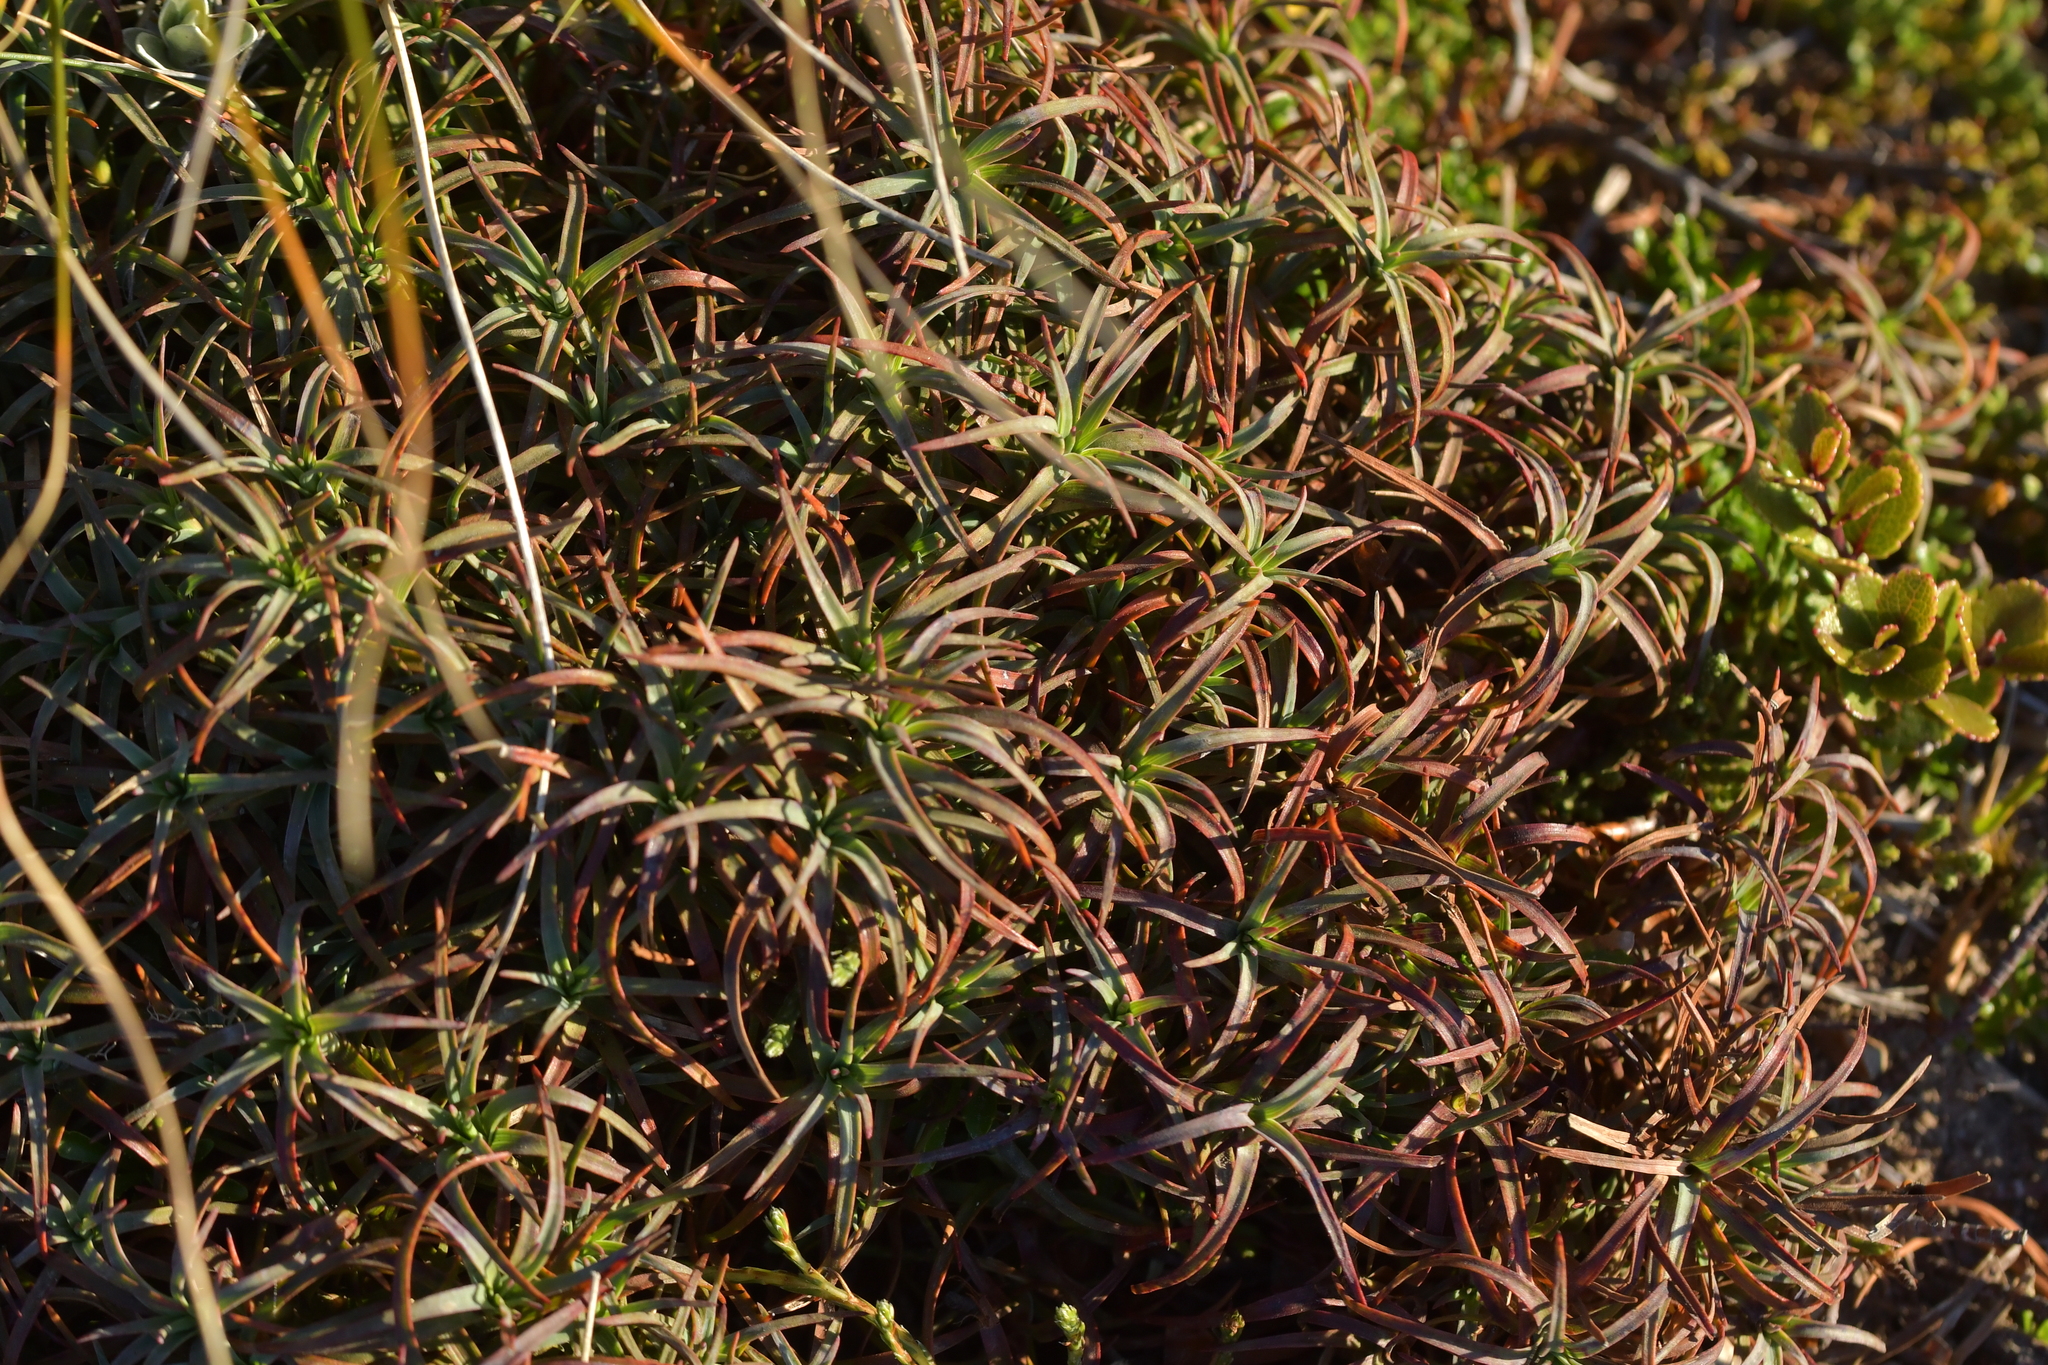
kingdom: Plantae
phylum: Tracheophyta
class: Magnoliopsida
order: Ericales
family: Ericaceae
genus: Dracophyllum
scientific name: Dracophyllum recurvum
